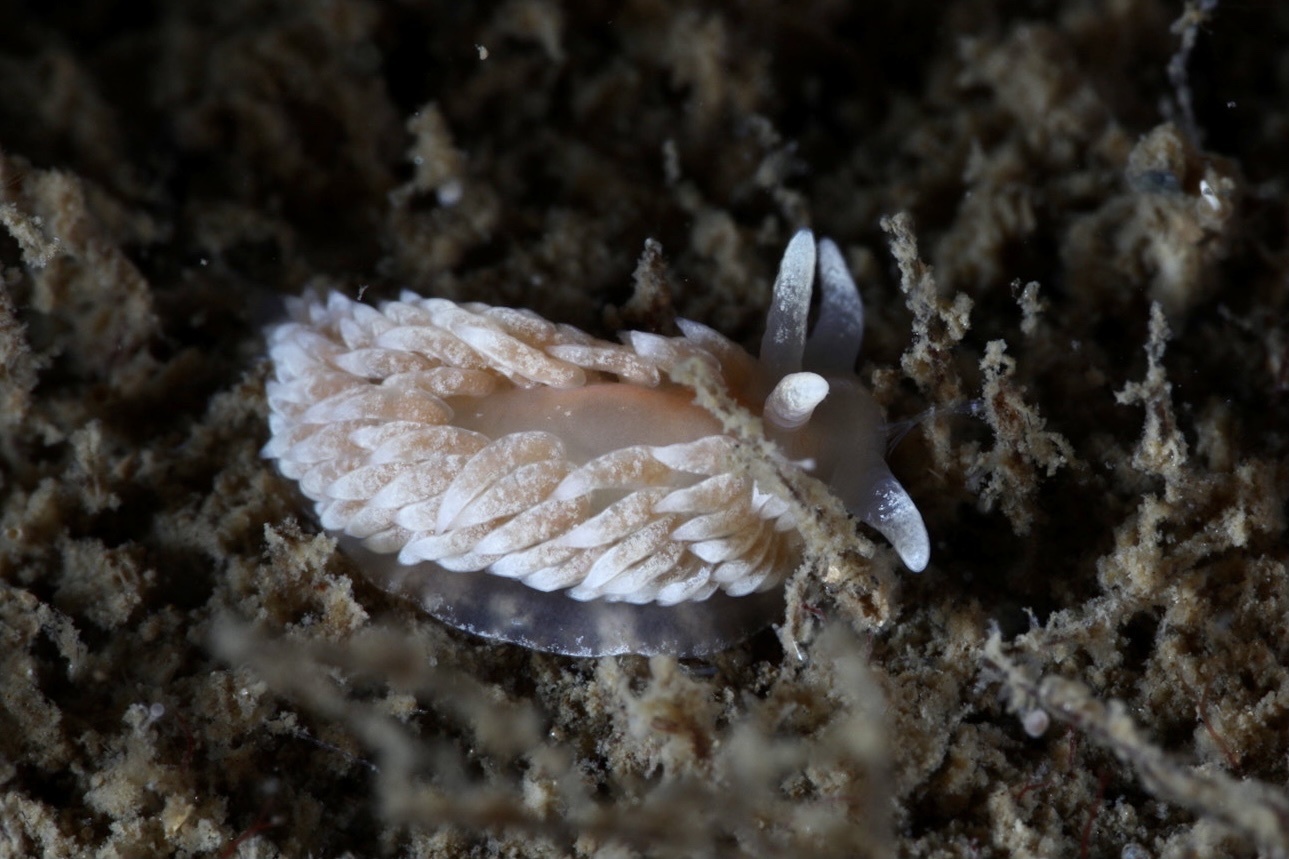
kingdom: Animalia
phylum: Mollusca
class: Gastropoda
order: Nudibranchia
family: Aeolidiidae
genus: Aeolidiella
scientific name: Aeolidiella glauca
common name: Orange-brown aeolid
